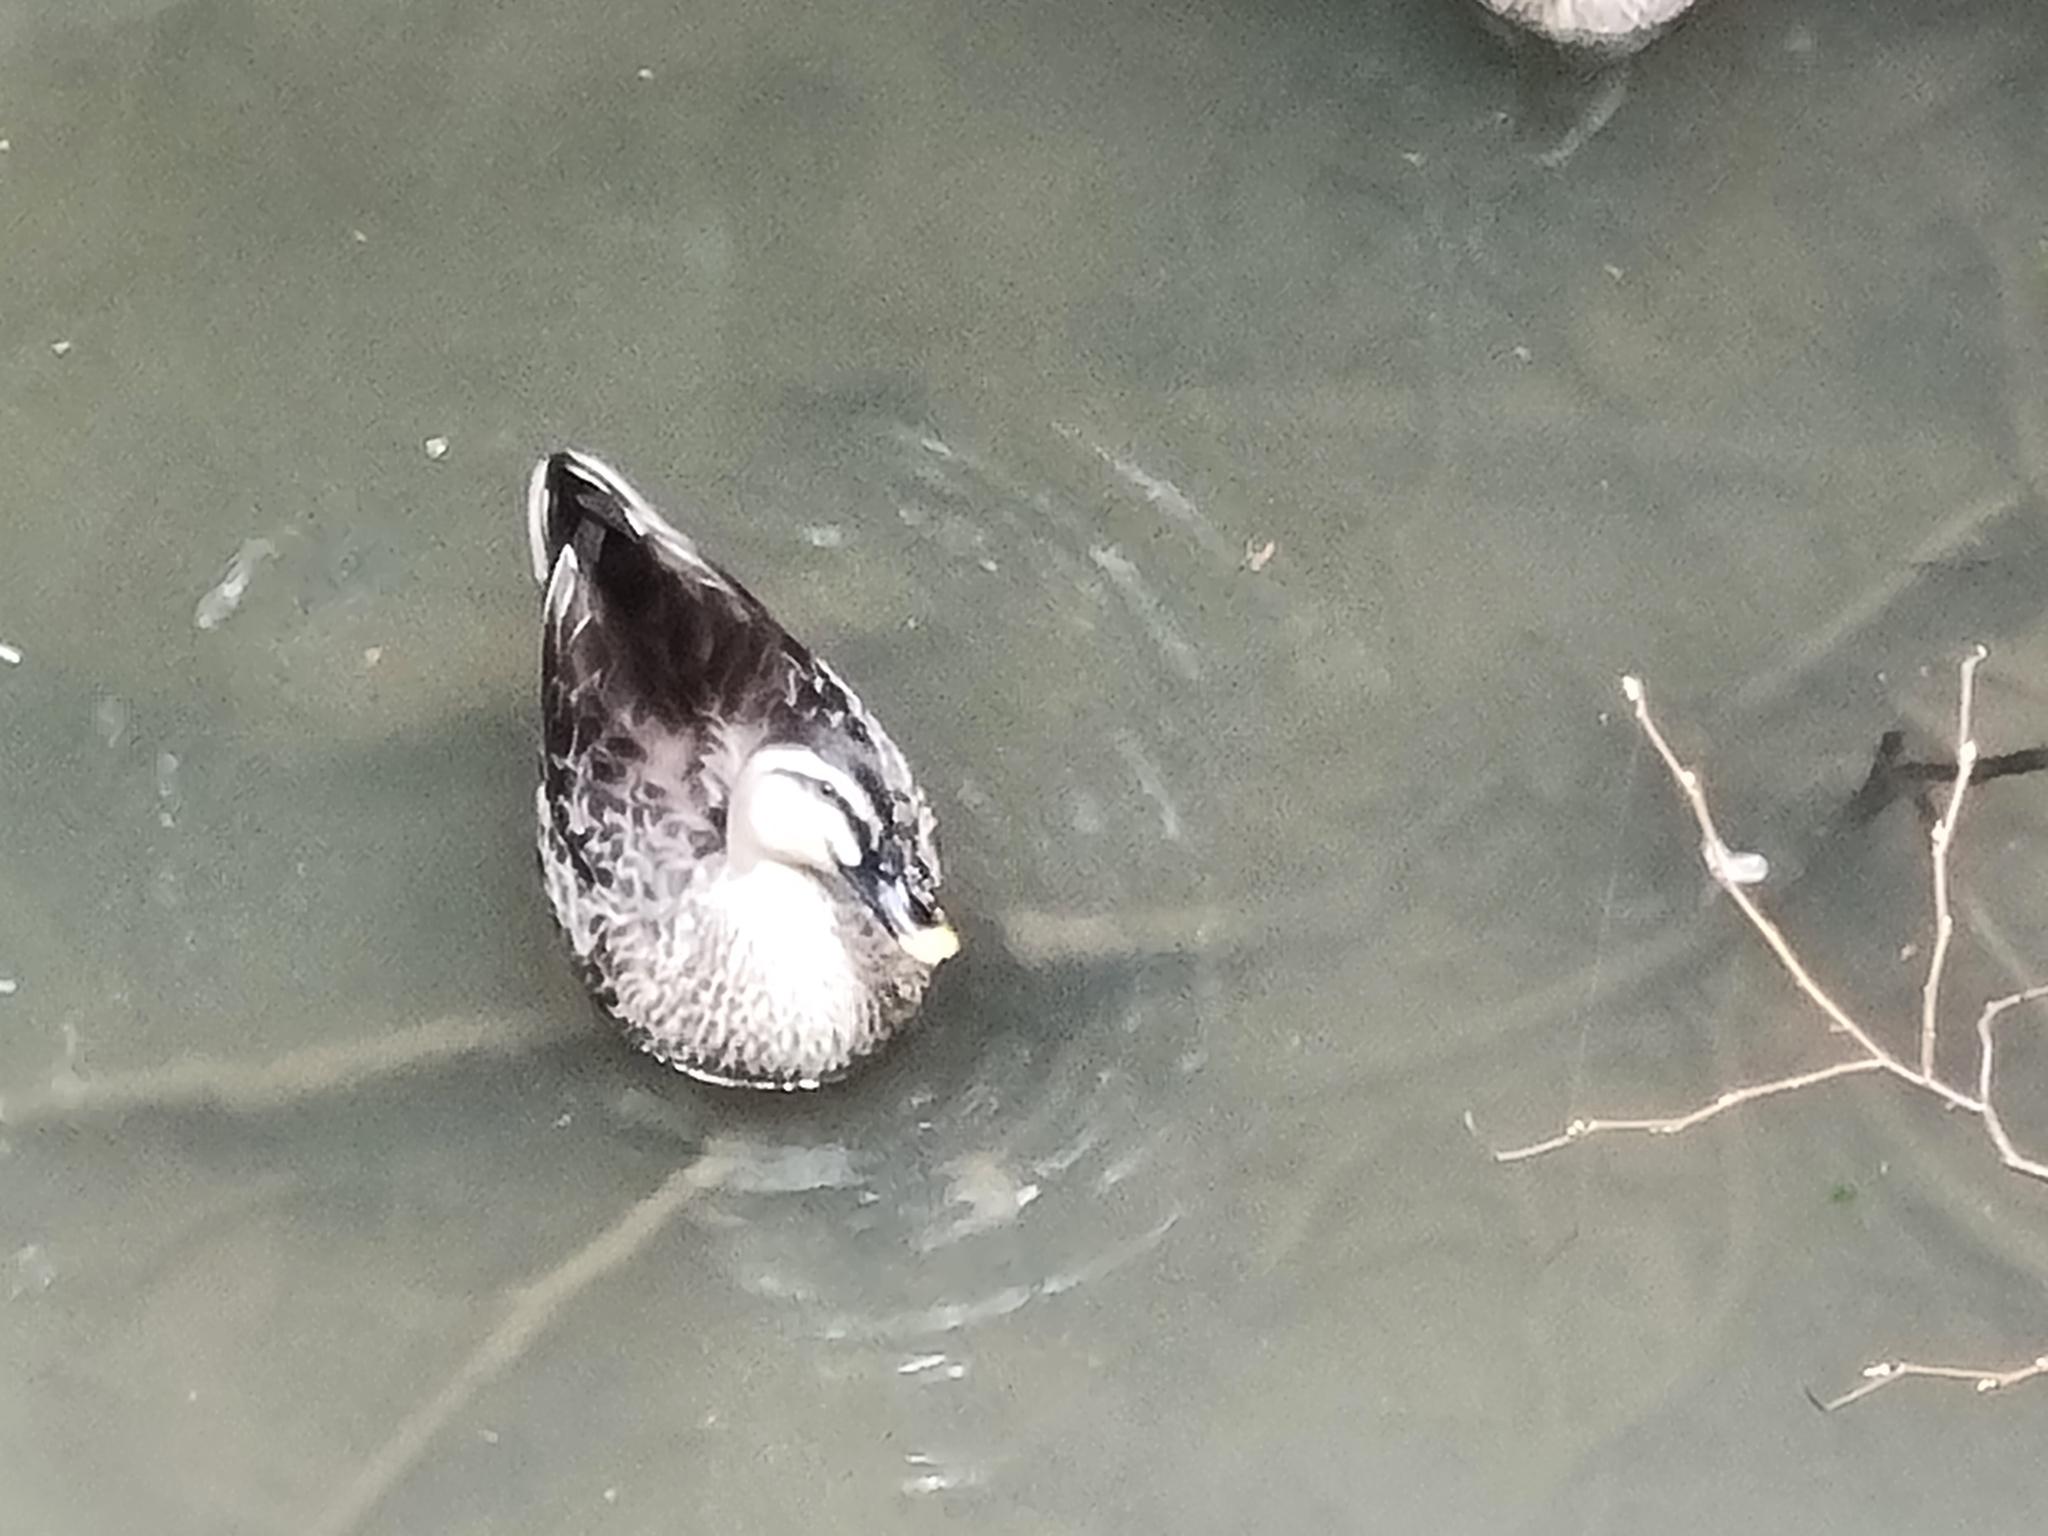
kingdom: Animalia
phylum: Chordata
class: Aves
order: Anseriformes
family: Anatidae
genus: Anas
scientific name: Anas zonorhyncha
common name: Eastern spot-billed duck
